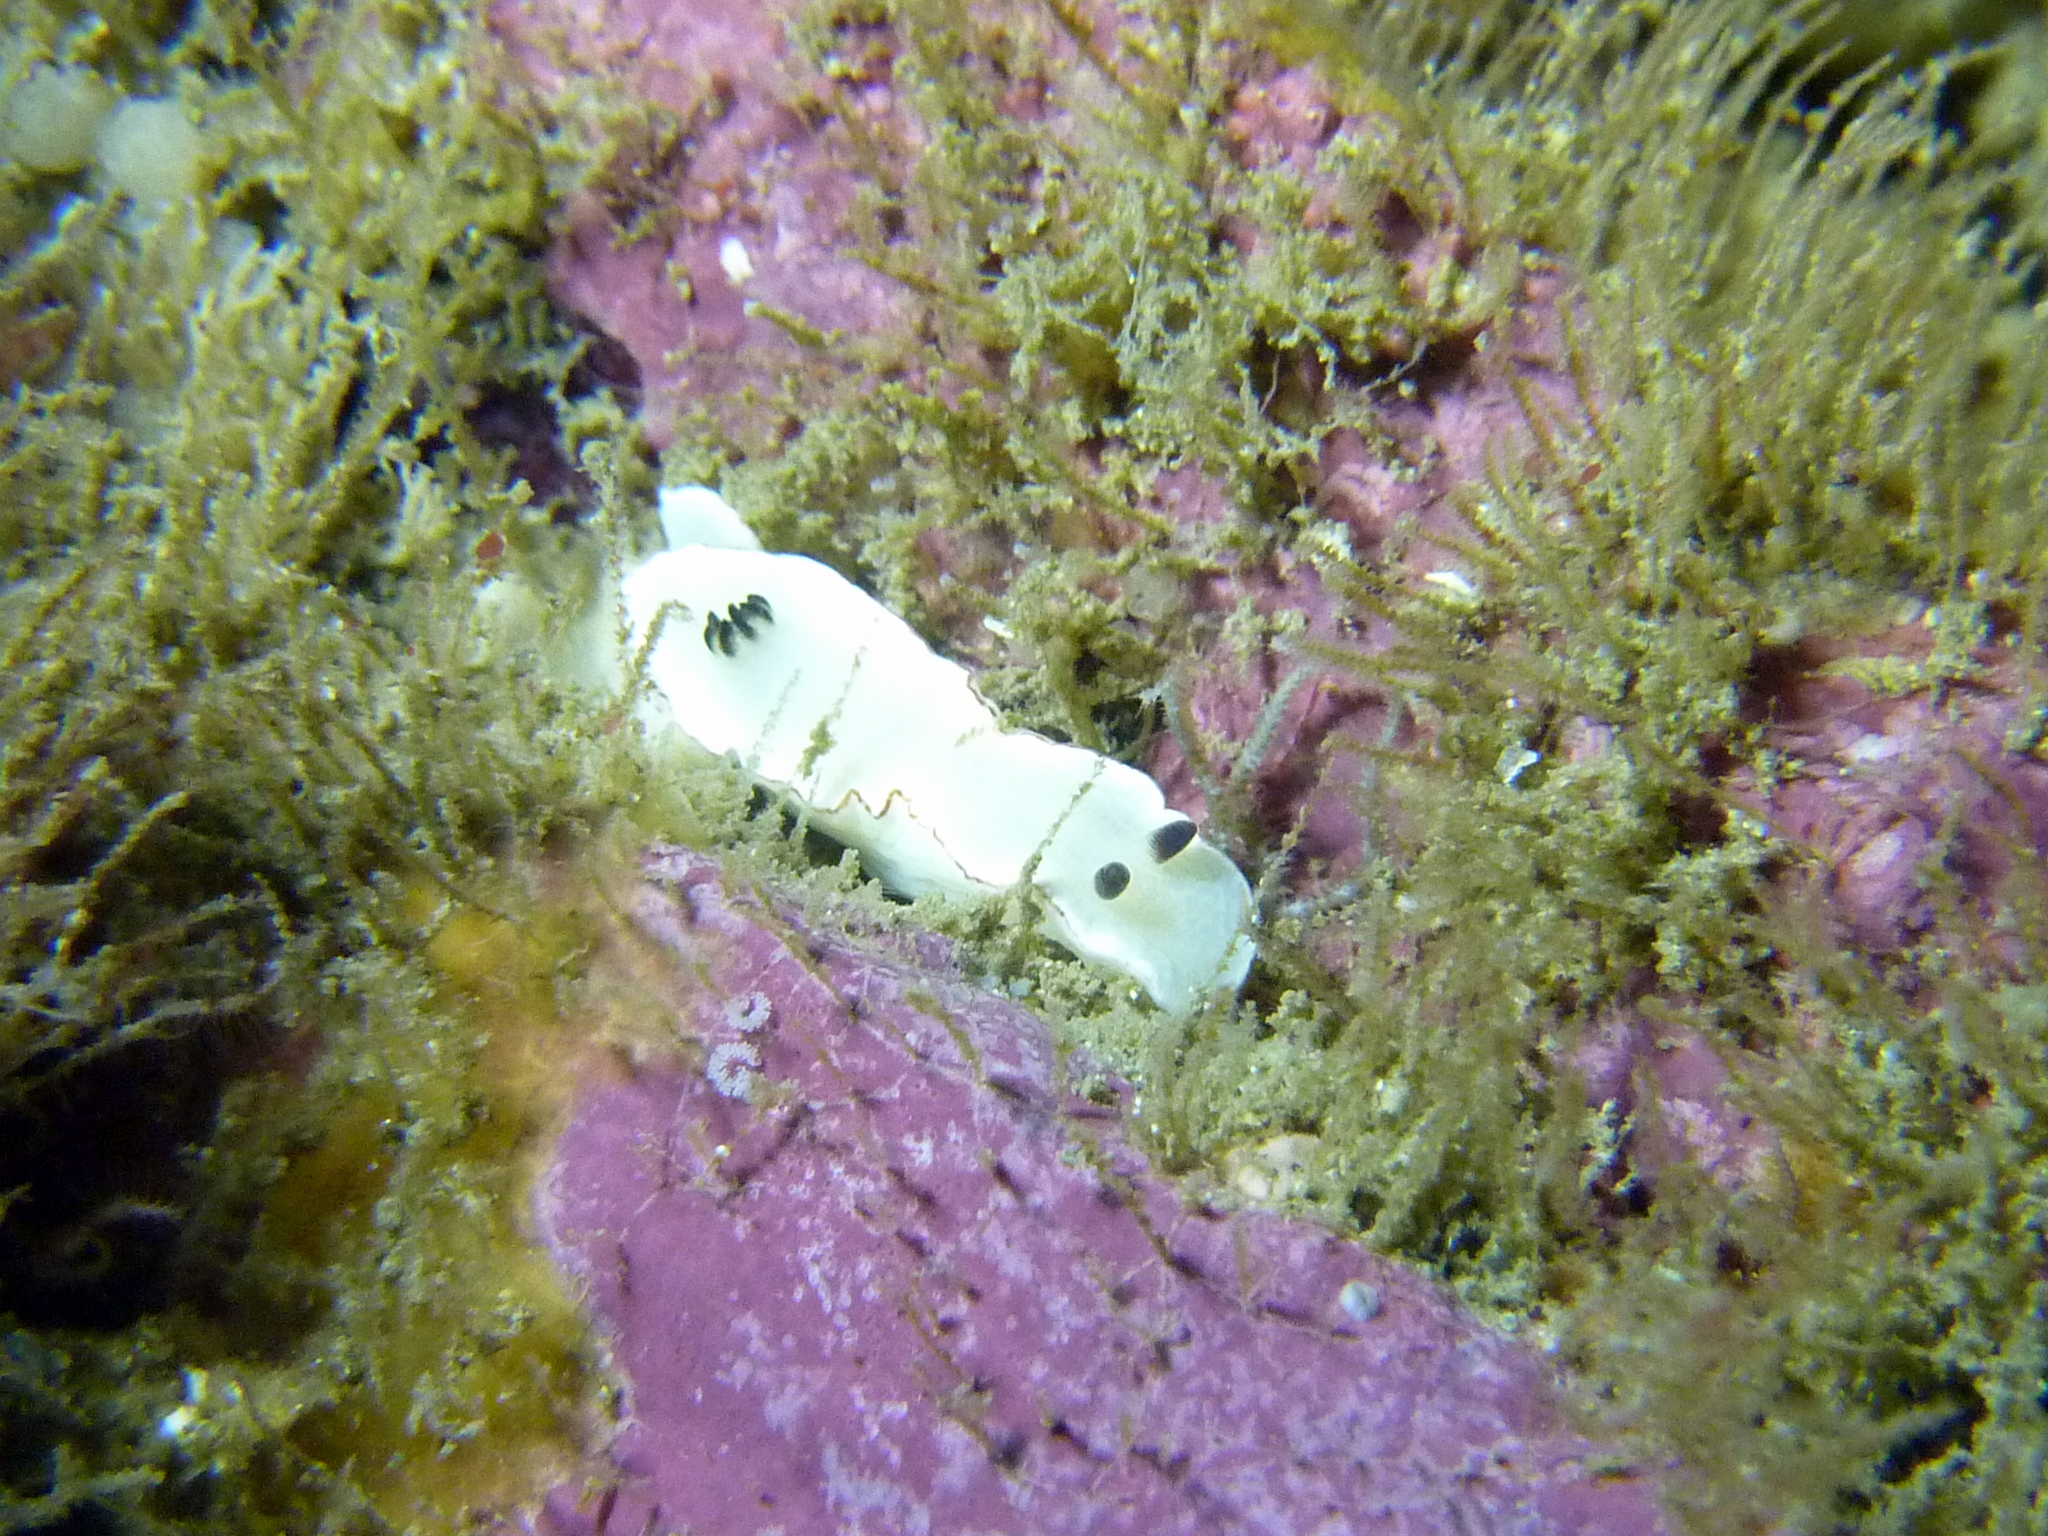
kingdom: Animalia
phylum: Mollusca
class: Gastropoda
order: Nudibranchia
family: Chromodorididae
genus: Glossodoris
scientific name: Glossodoris angasi
